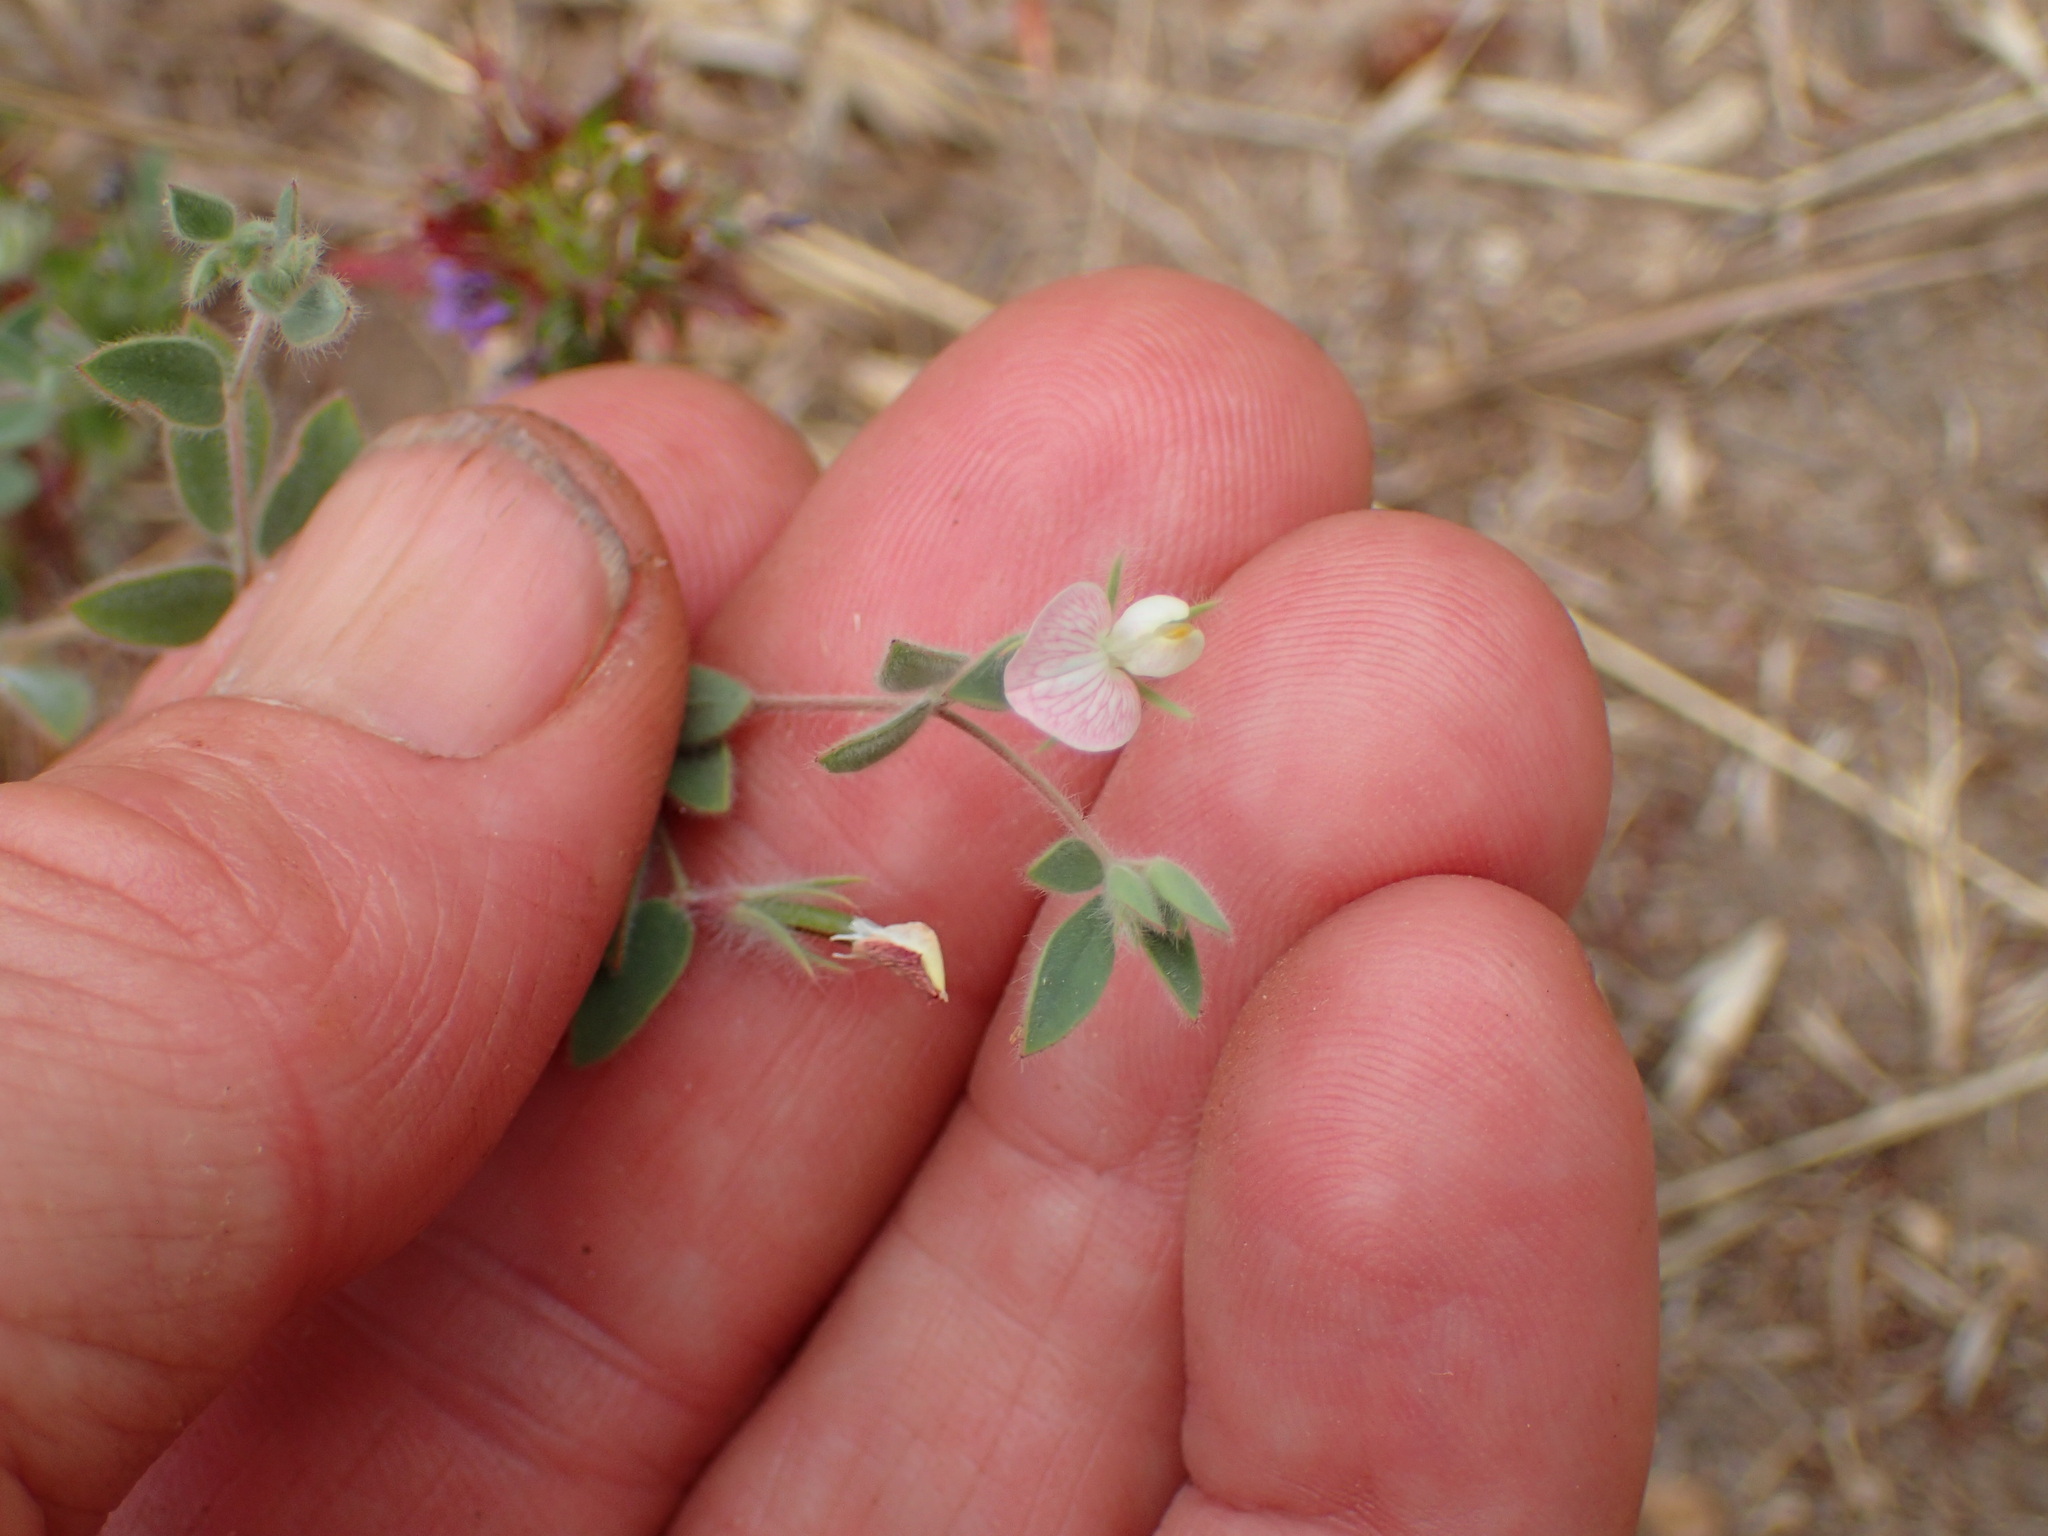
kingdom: Plantae
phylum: Tracheophyta
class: Magnoliopsida
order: Fabales
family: Fabaceae
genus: Acmispon
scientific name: Acmispon americanus
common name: American bird's-foot trefoil
